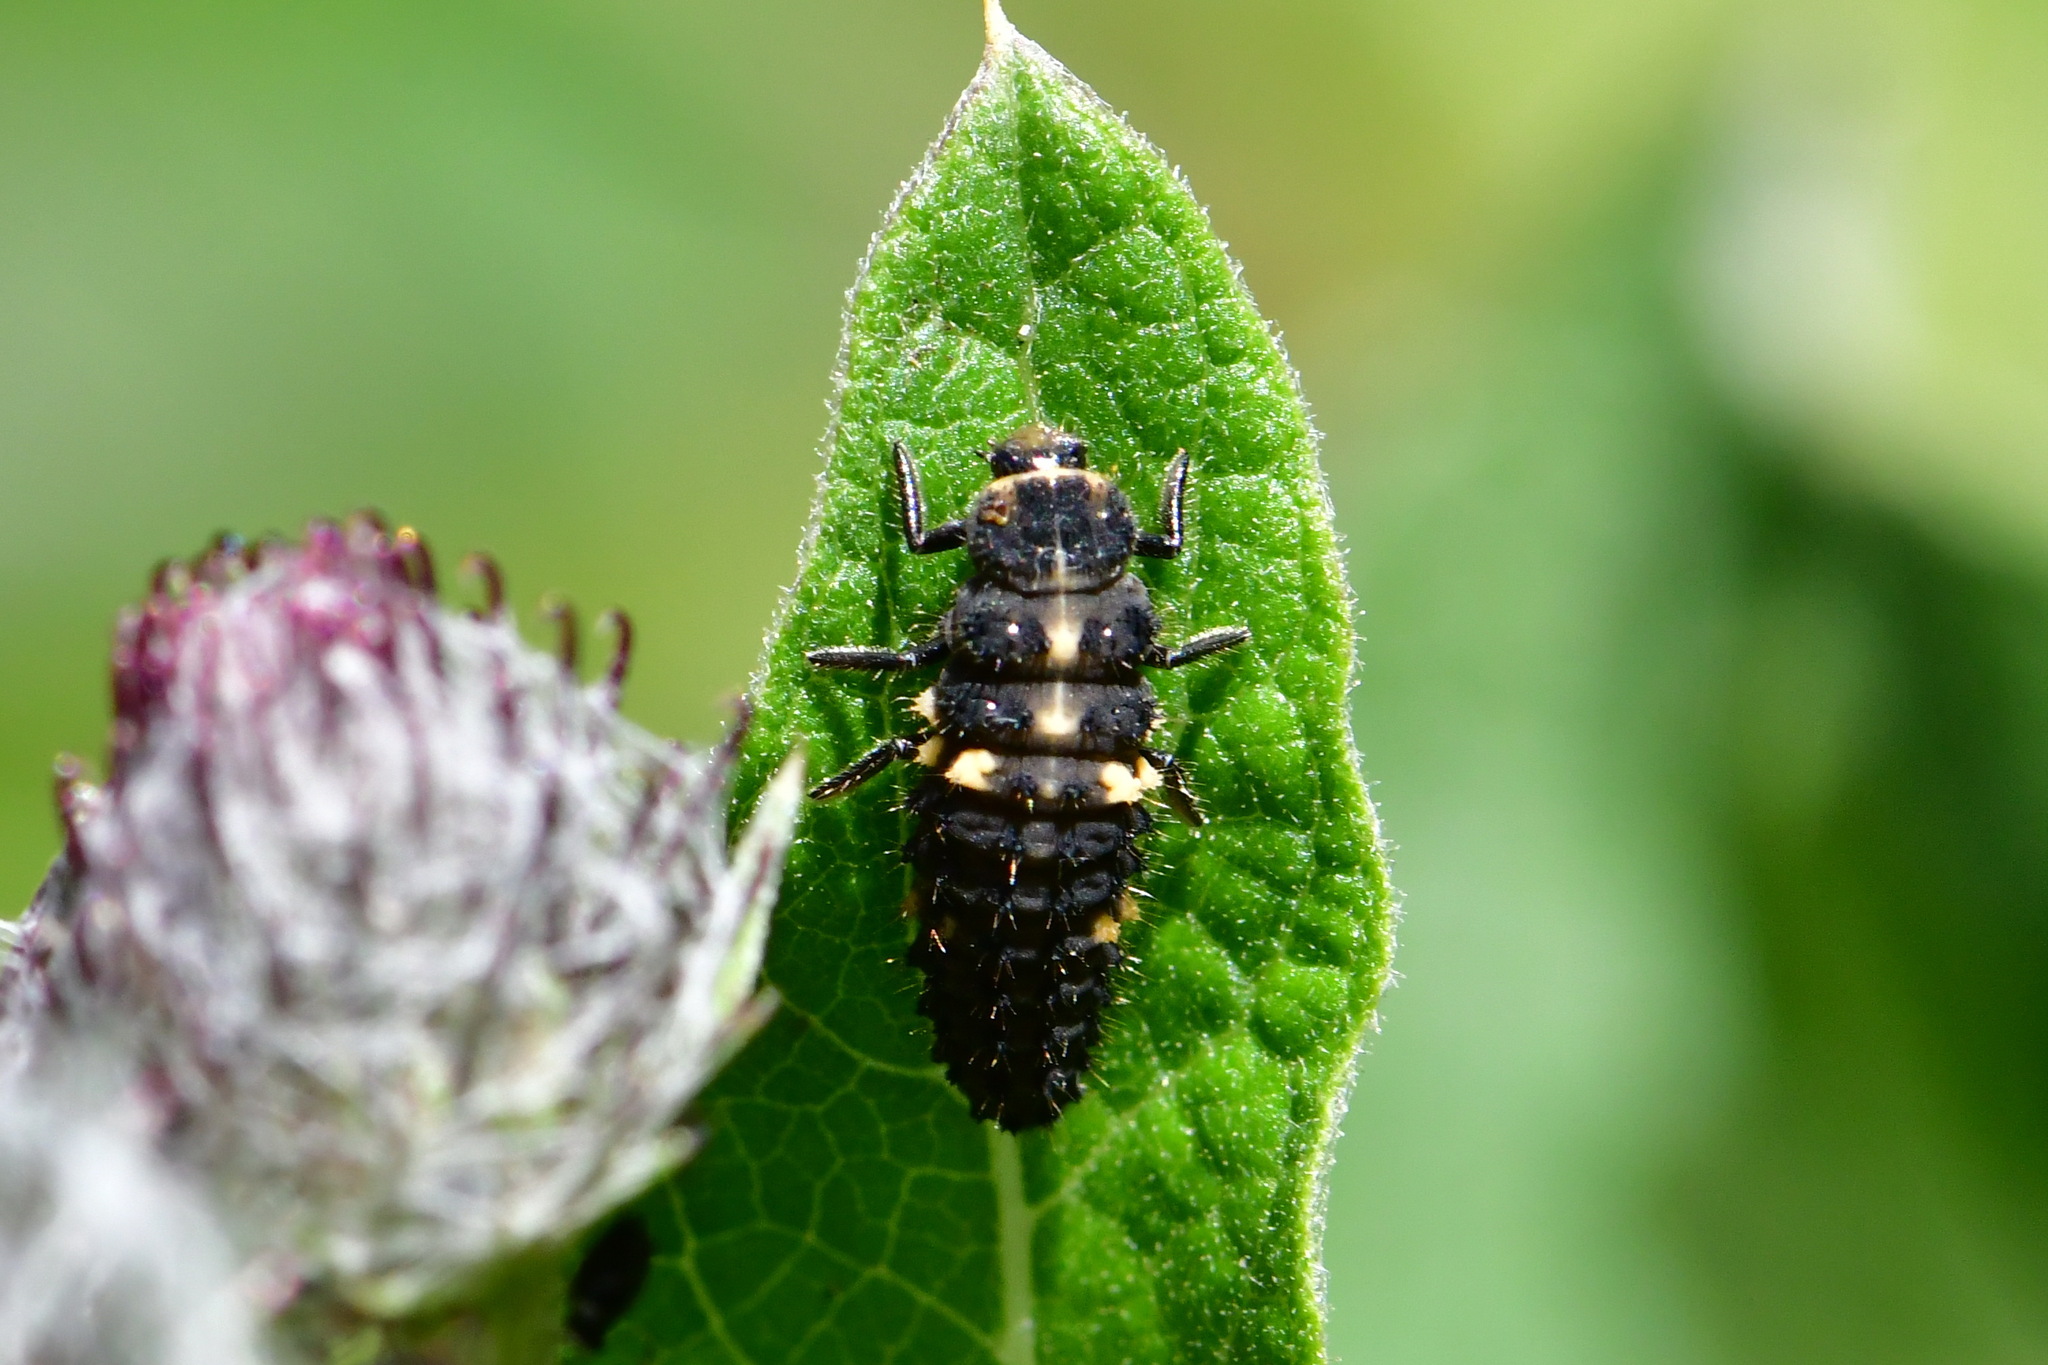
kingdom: Animalia
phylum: Arthropoda
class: Insecta
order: Coleoptera
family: Coccinellidae
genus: Ceratomegilla
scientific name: Ceratomegilla notata
